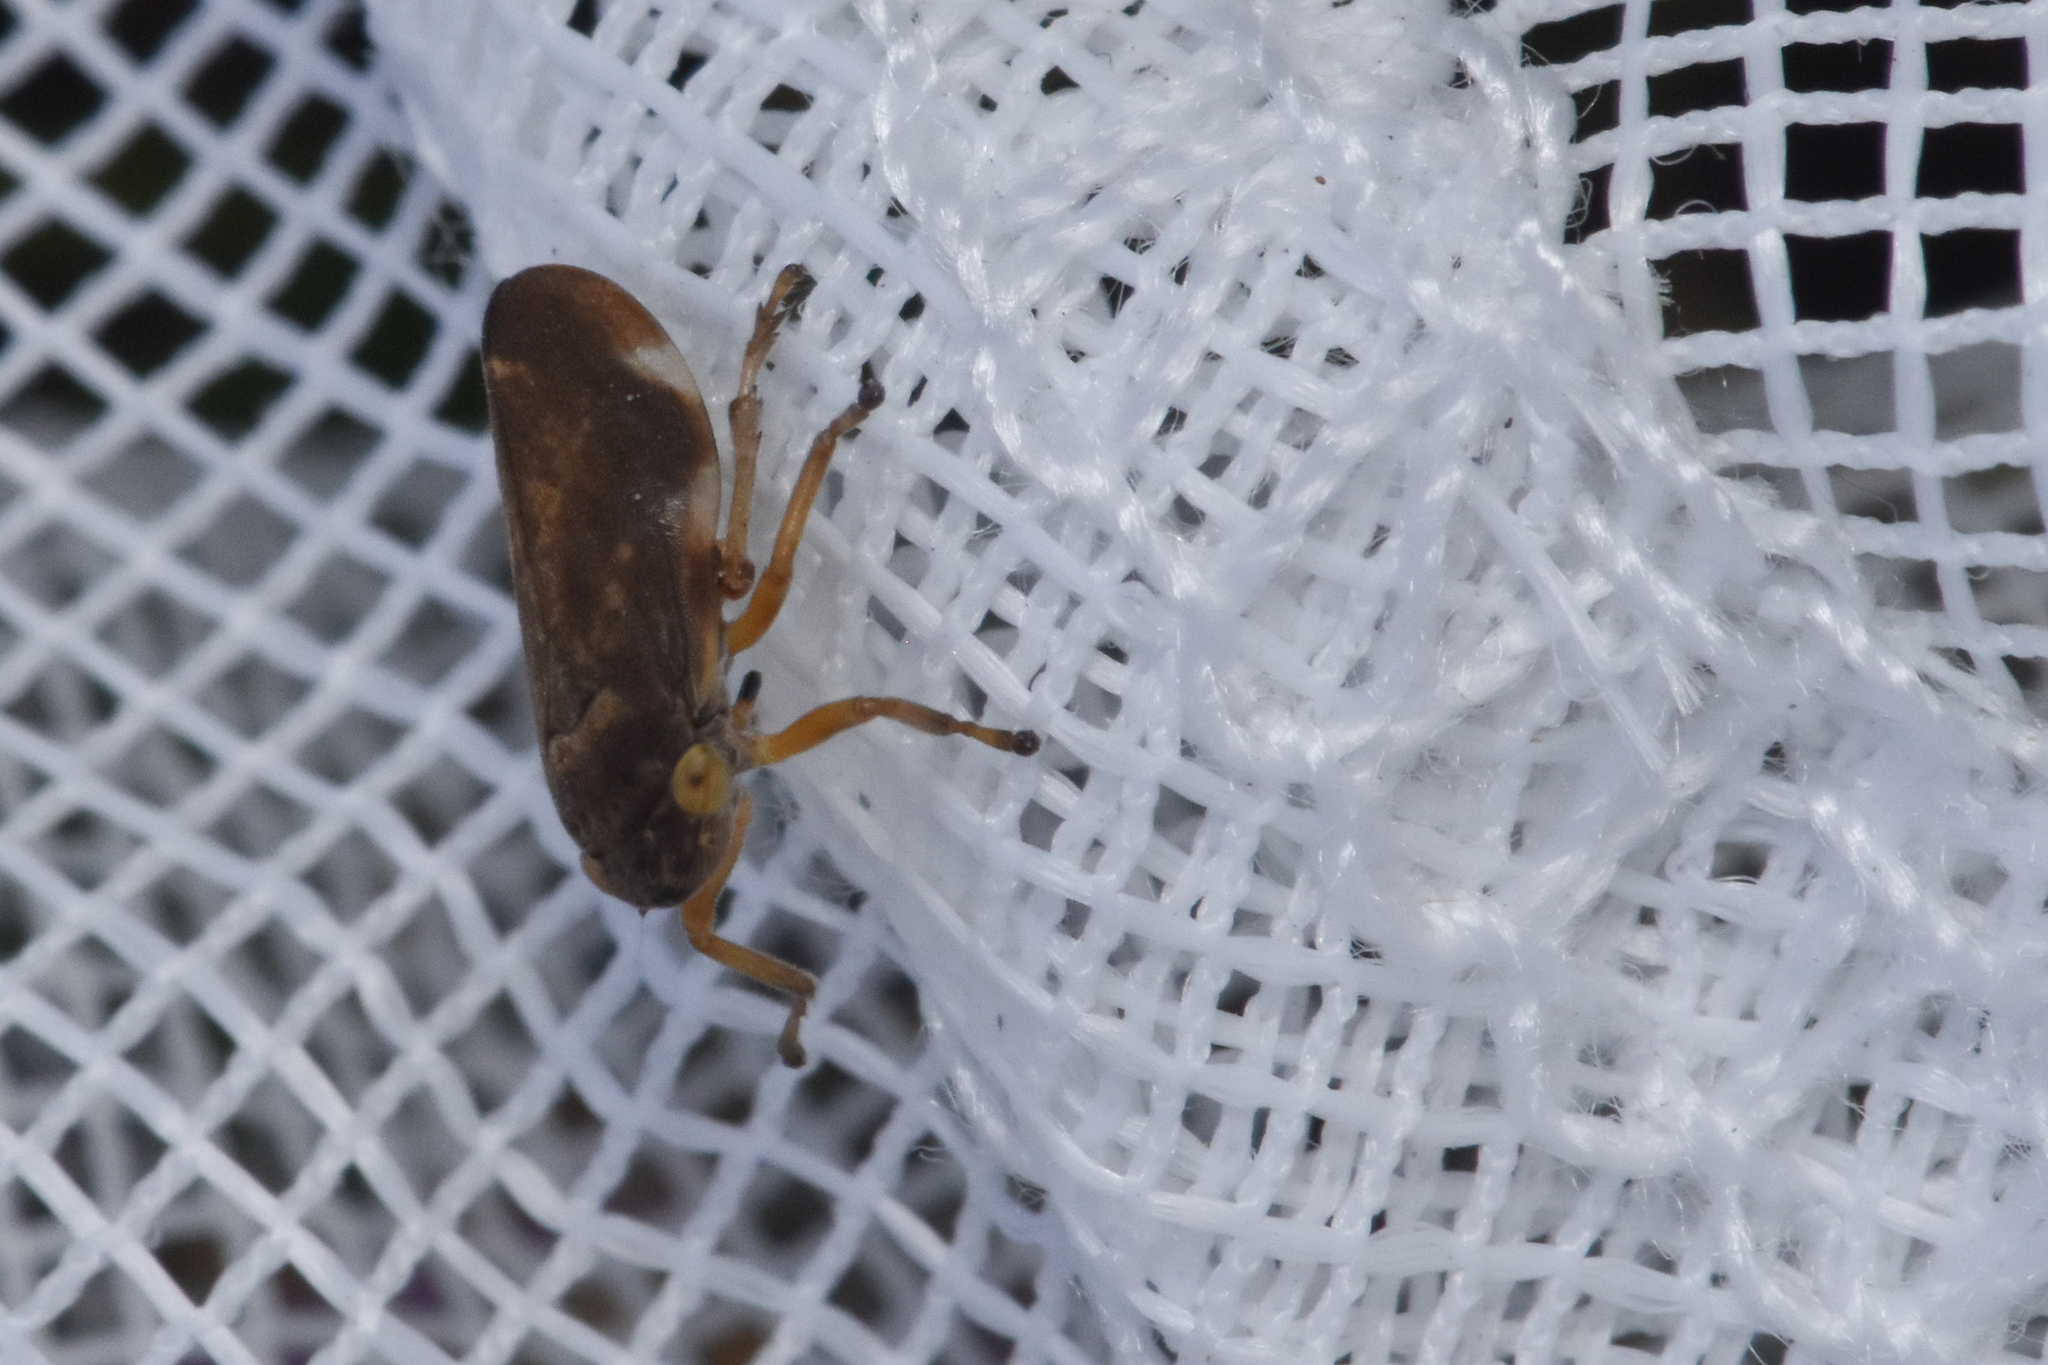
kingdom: Animalia
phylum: Arthropoda
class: Insecta
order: Hemiptera
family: Aphrophoridae
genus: Philaenus
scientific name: Philaenus spumarius
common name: Meadow spittlebug
